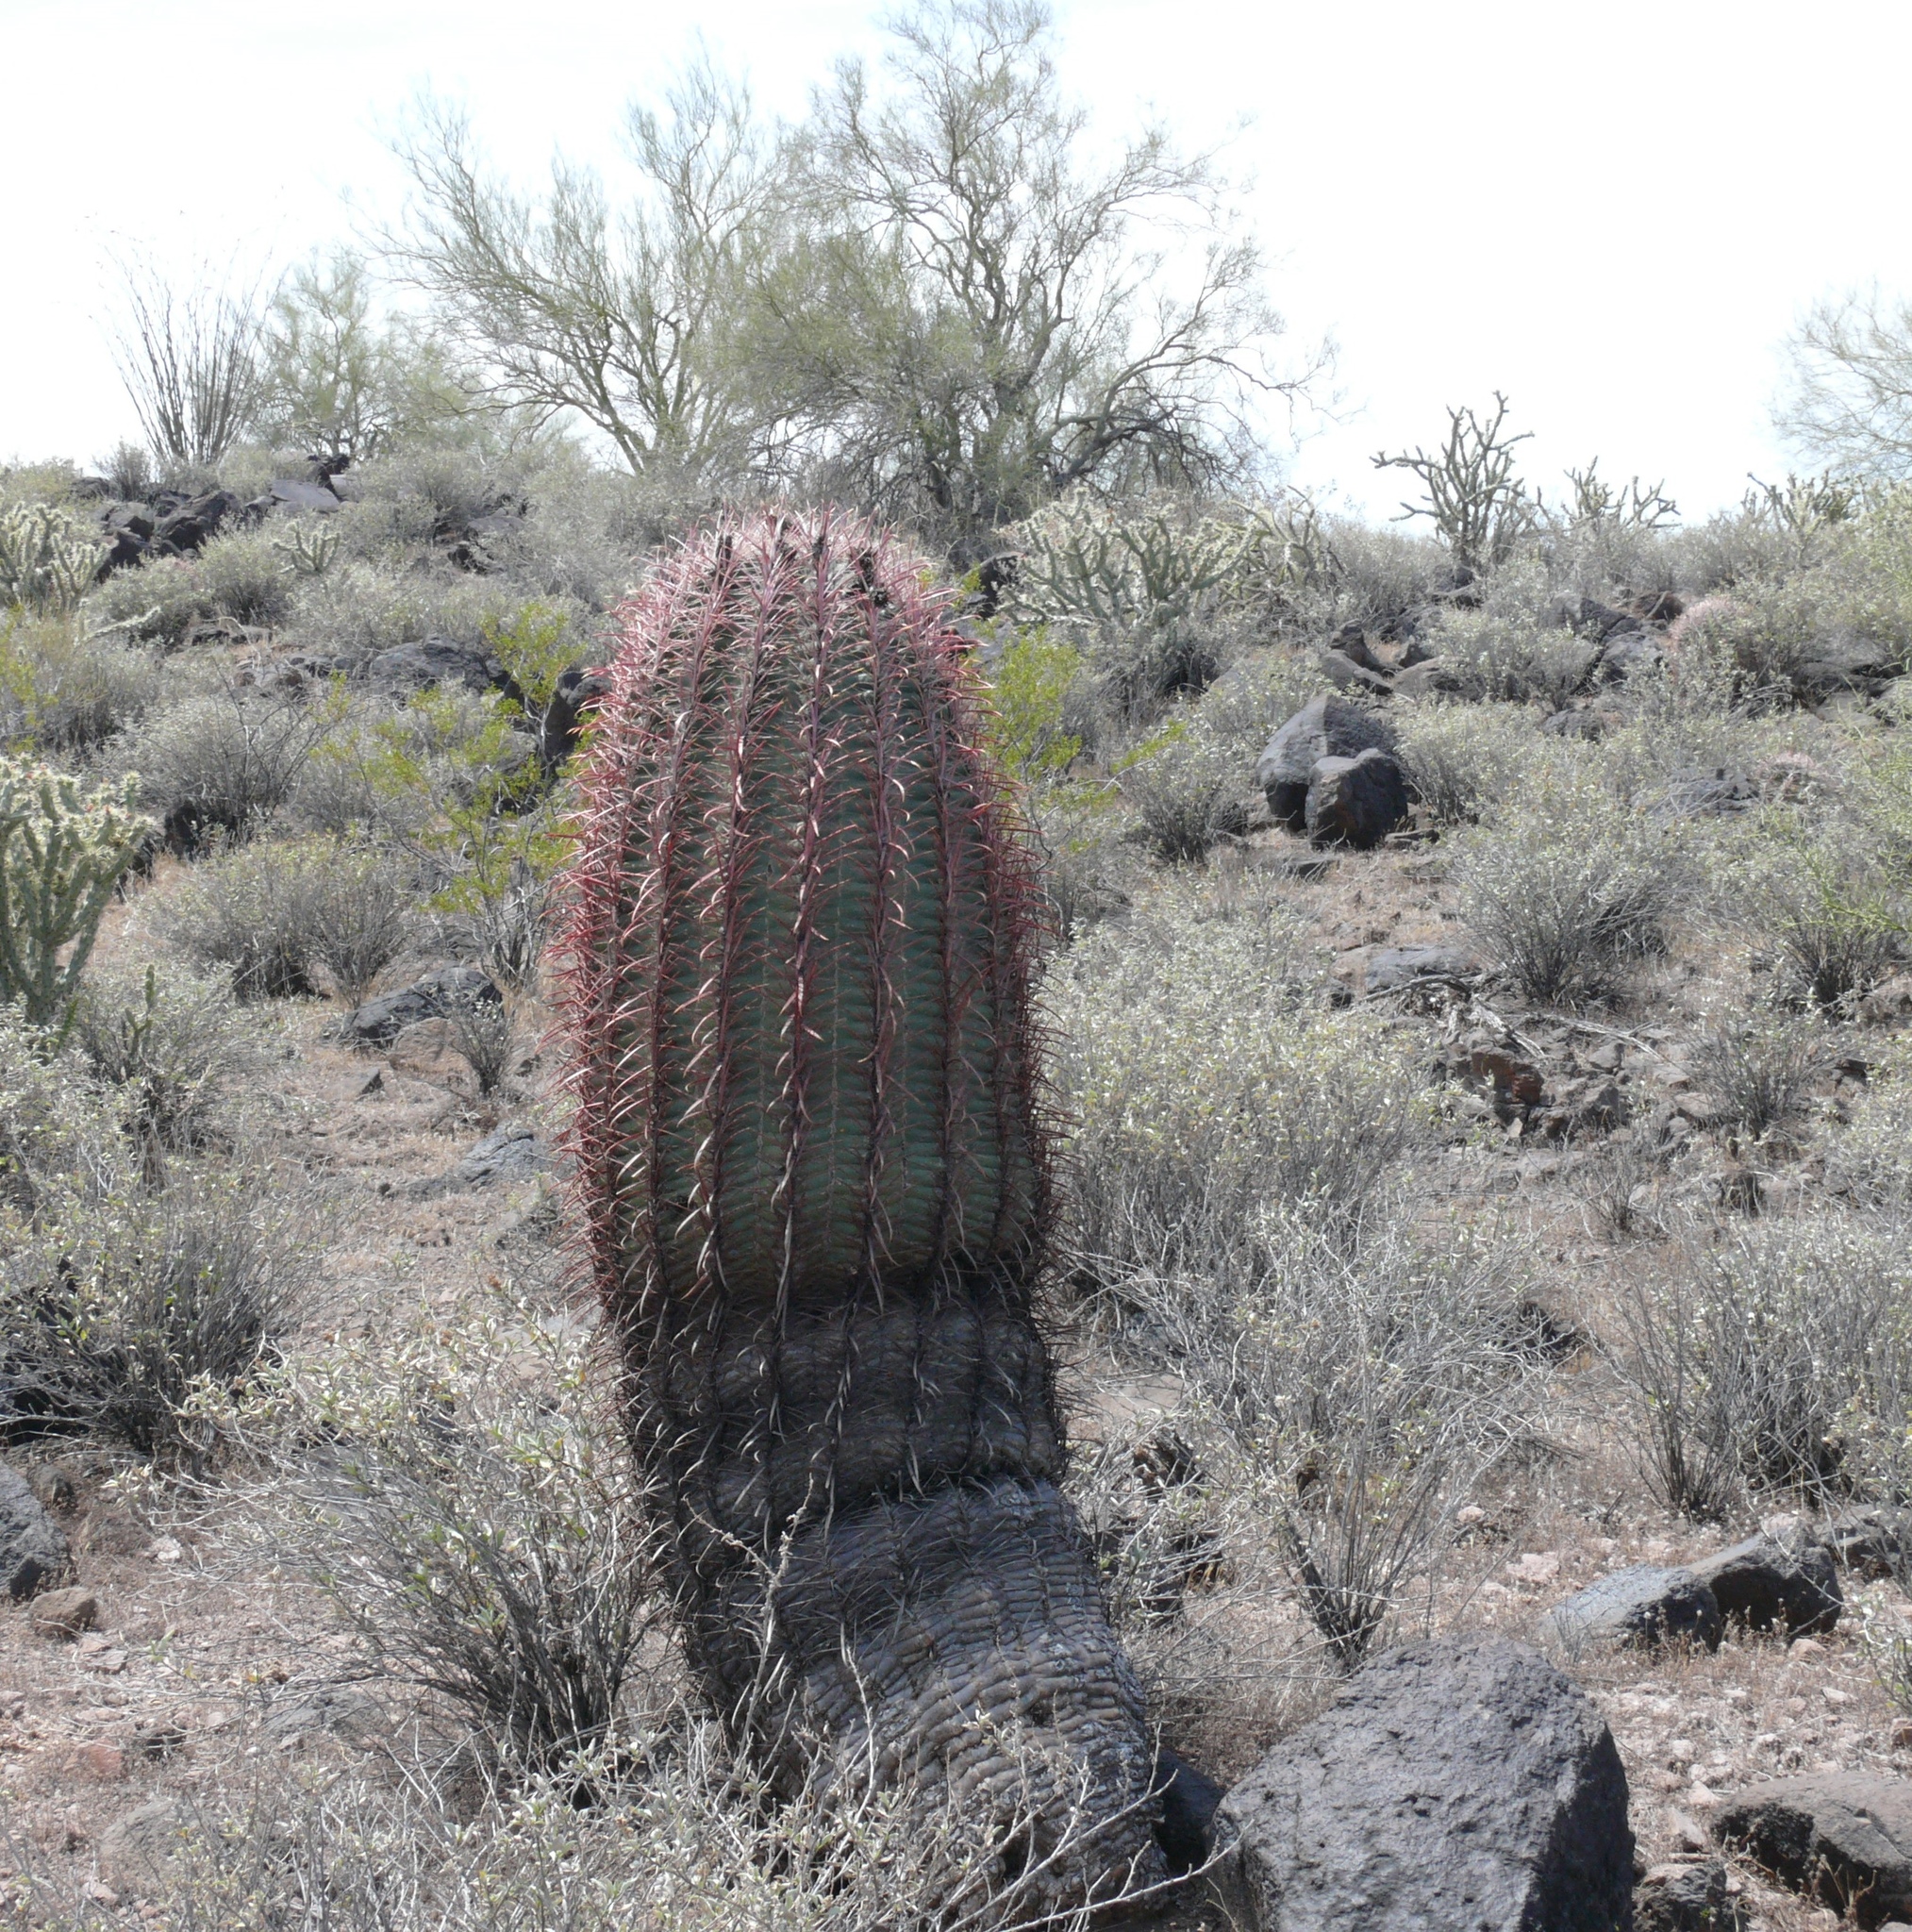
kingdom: Plantae
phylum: Tracheophyta
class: Magnoliopsida
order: Caryophyllales
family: Cactaceae
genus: Ferocactus
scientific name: Ferocactus cylindraceus
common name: California barrel cactus
